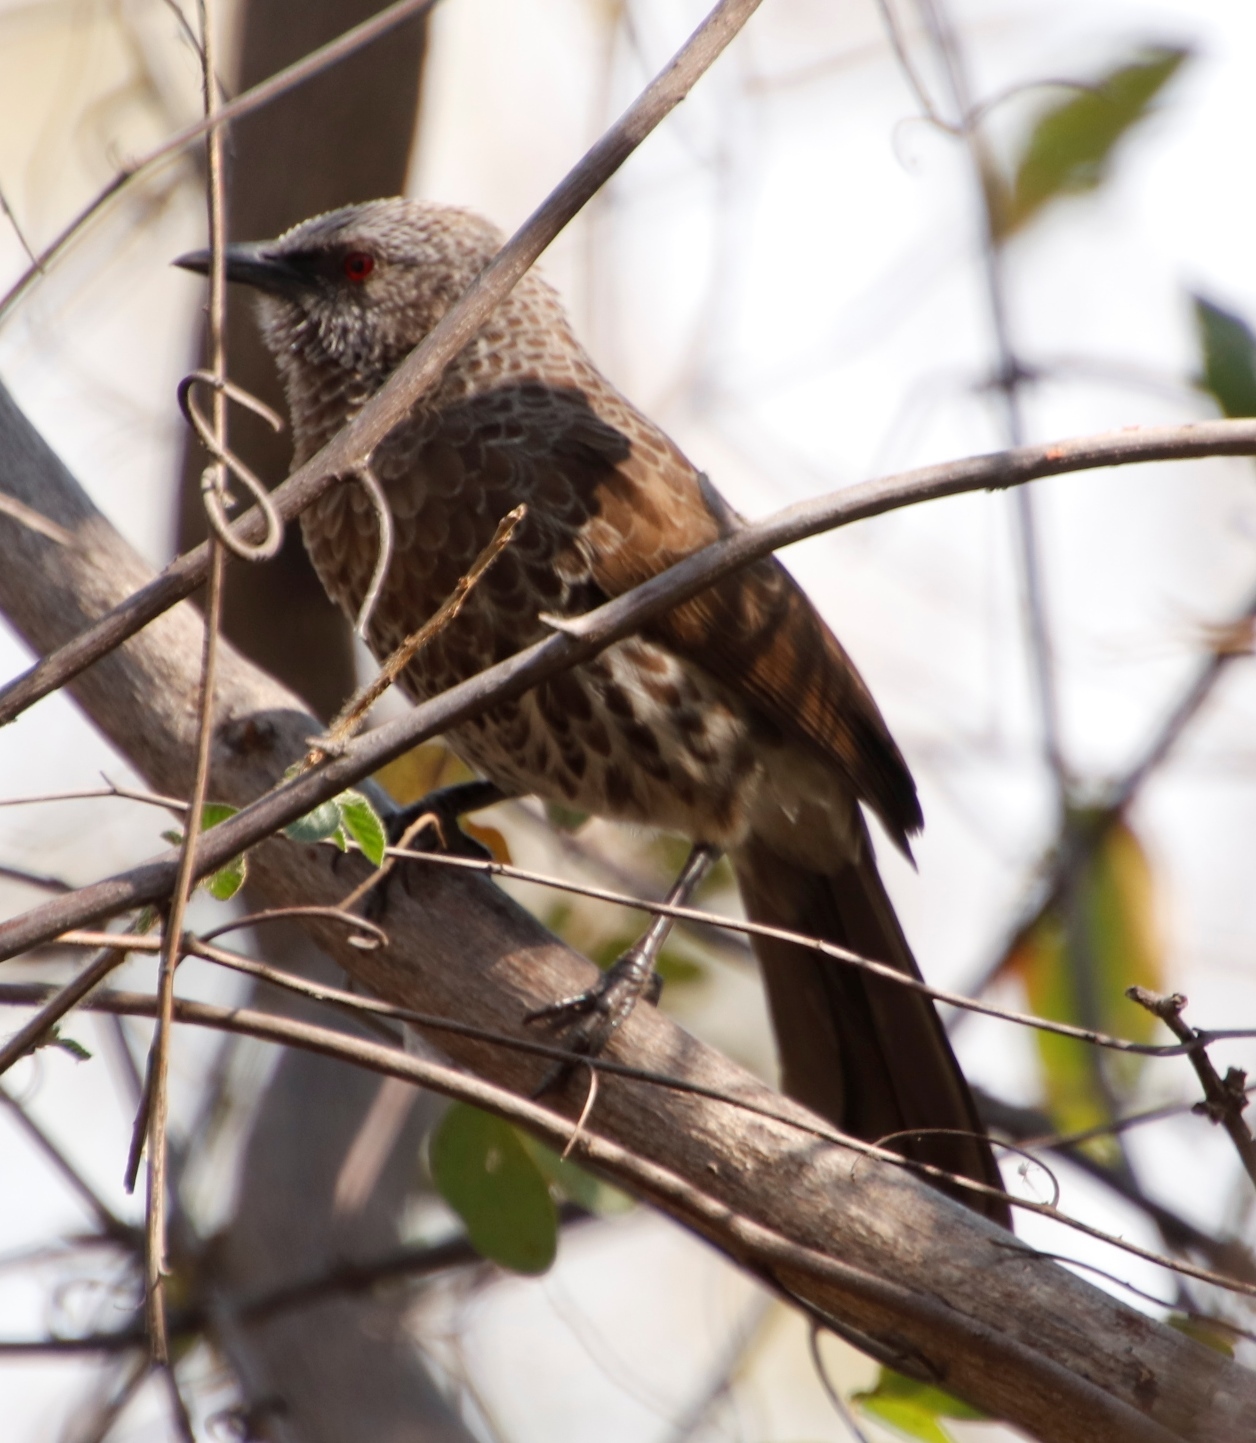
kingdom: Animalia
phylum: Chordata
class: Aves
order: Passeriformes
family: Leiothrichidae
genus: Turdoides
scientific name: Turdoides hartlaubii
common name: Hartlaub's babbler
